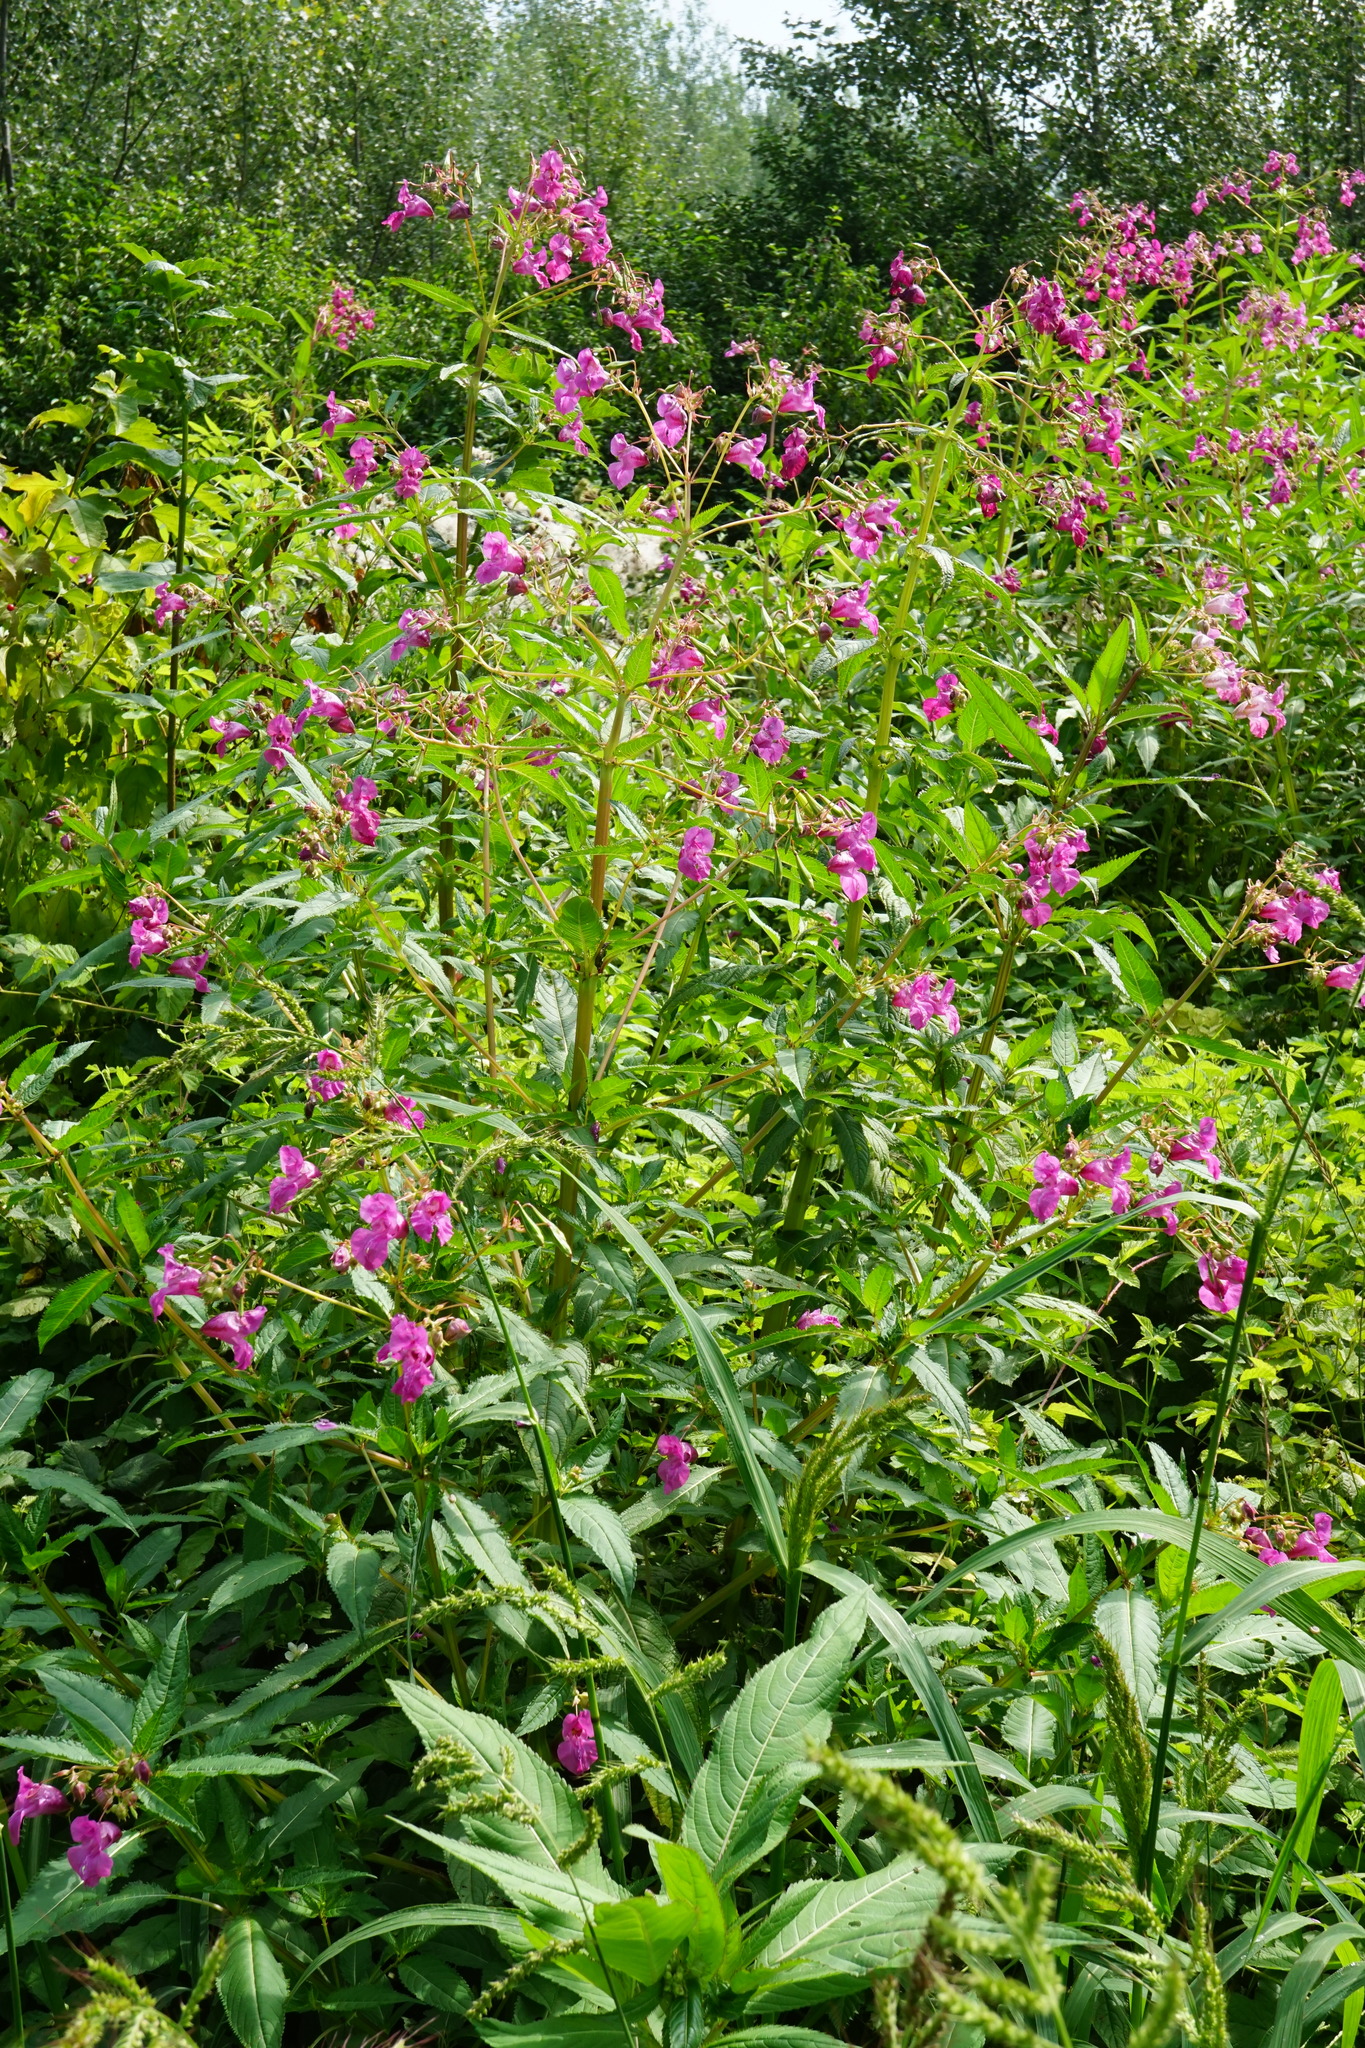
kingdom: Plantae
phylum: Tracheophyta
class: Magnoliopsida
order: Ericales
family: Balsaminaceae
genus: Impatiens
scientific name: Impatiens glandulifera
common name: Himalayan balsam
